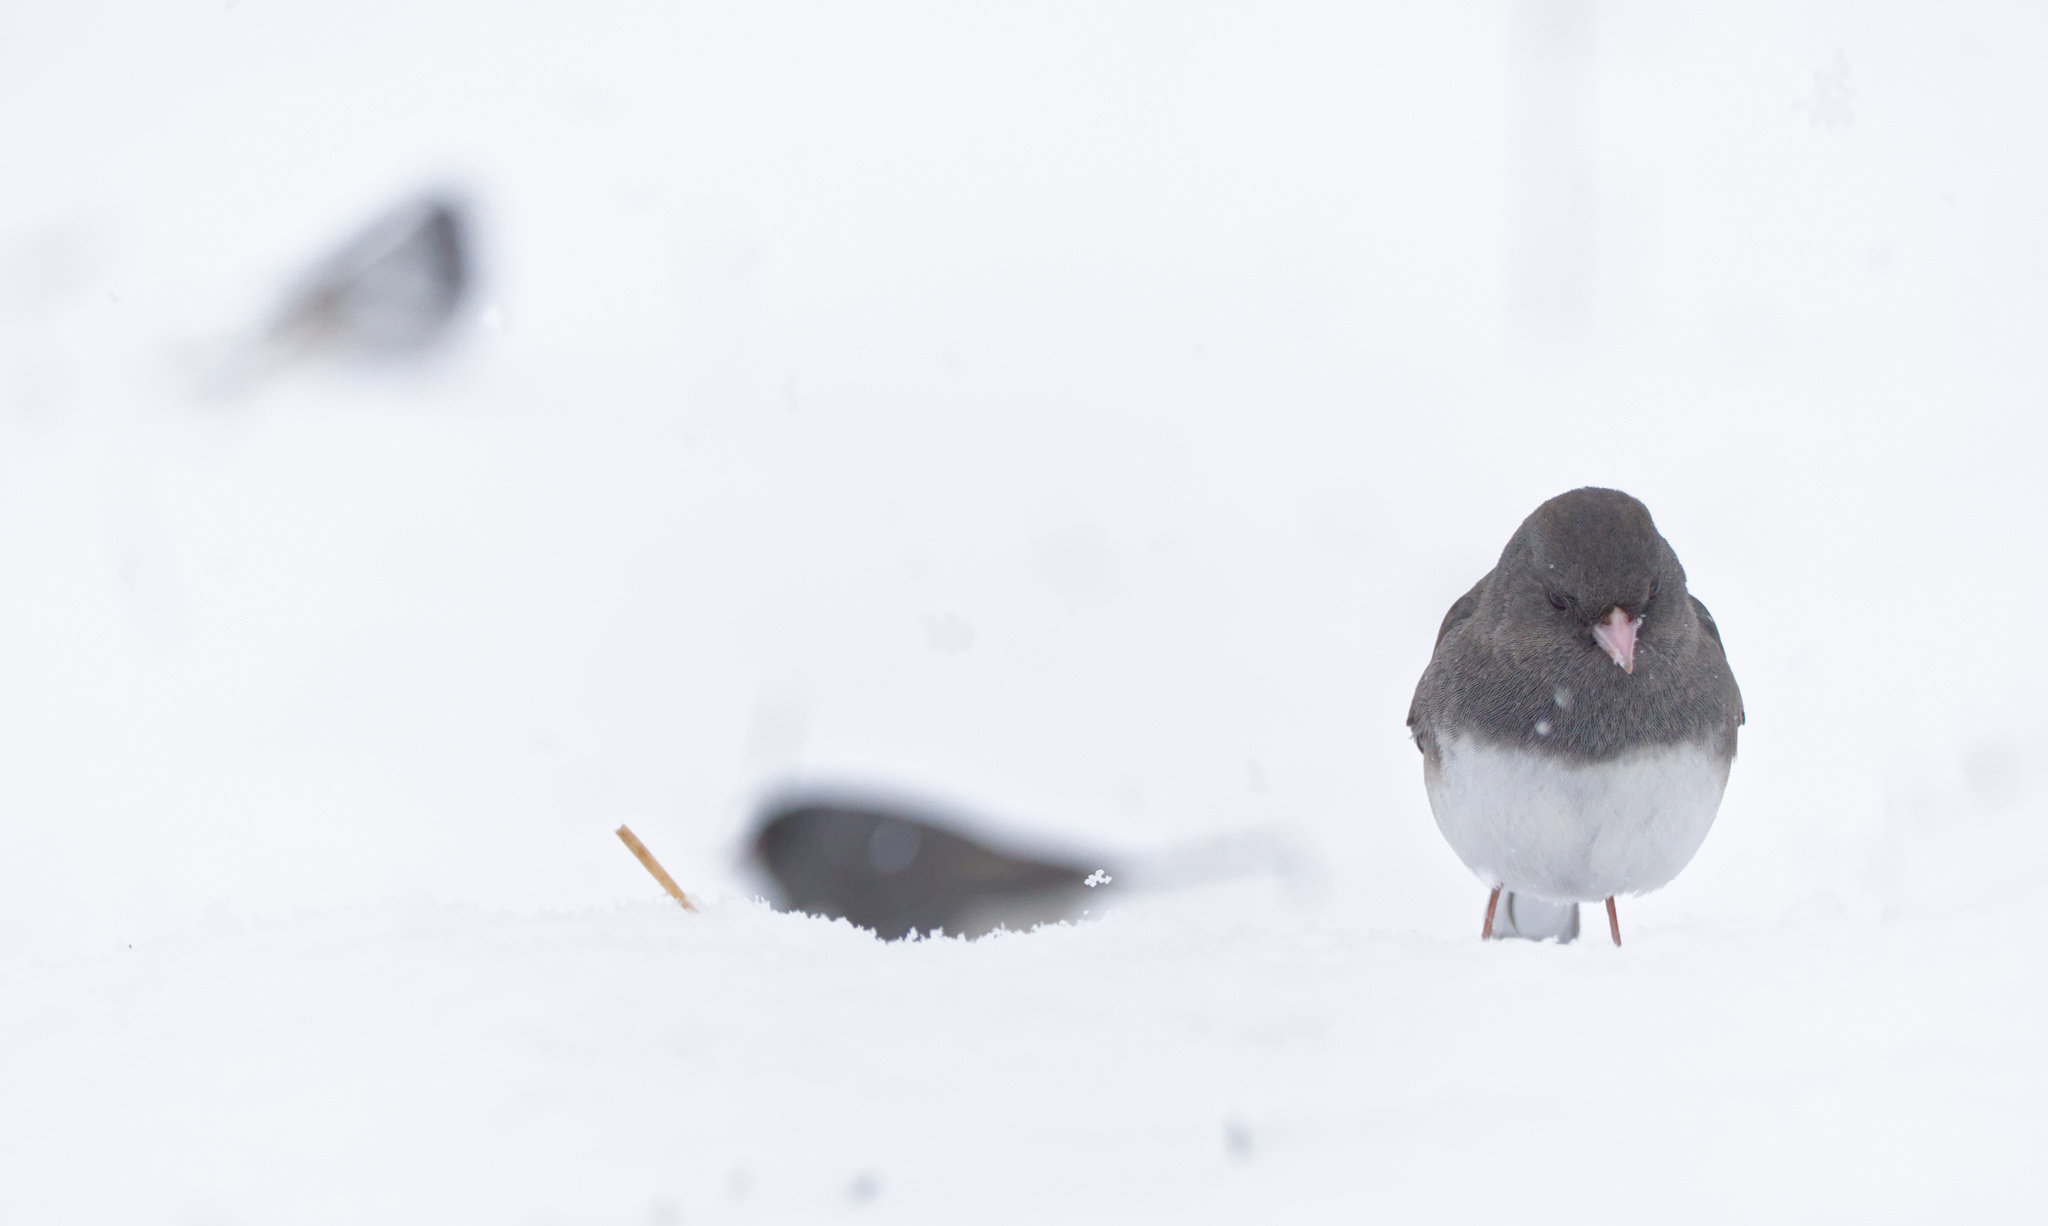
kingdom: Animalia
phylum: Chordata
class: Aves
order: Passeriformes
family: Passerellidae
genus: Junco
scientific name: Junco hyemalis
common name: Dark-eyed junco
